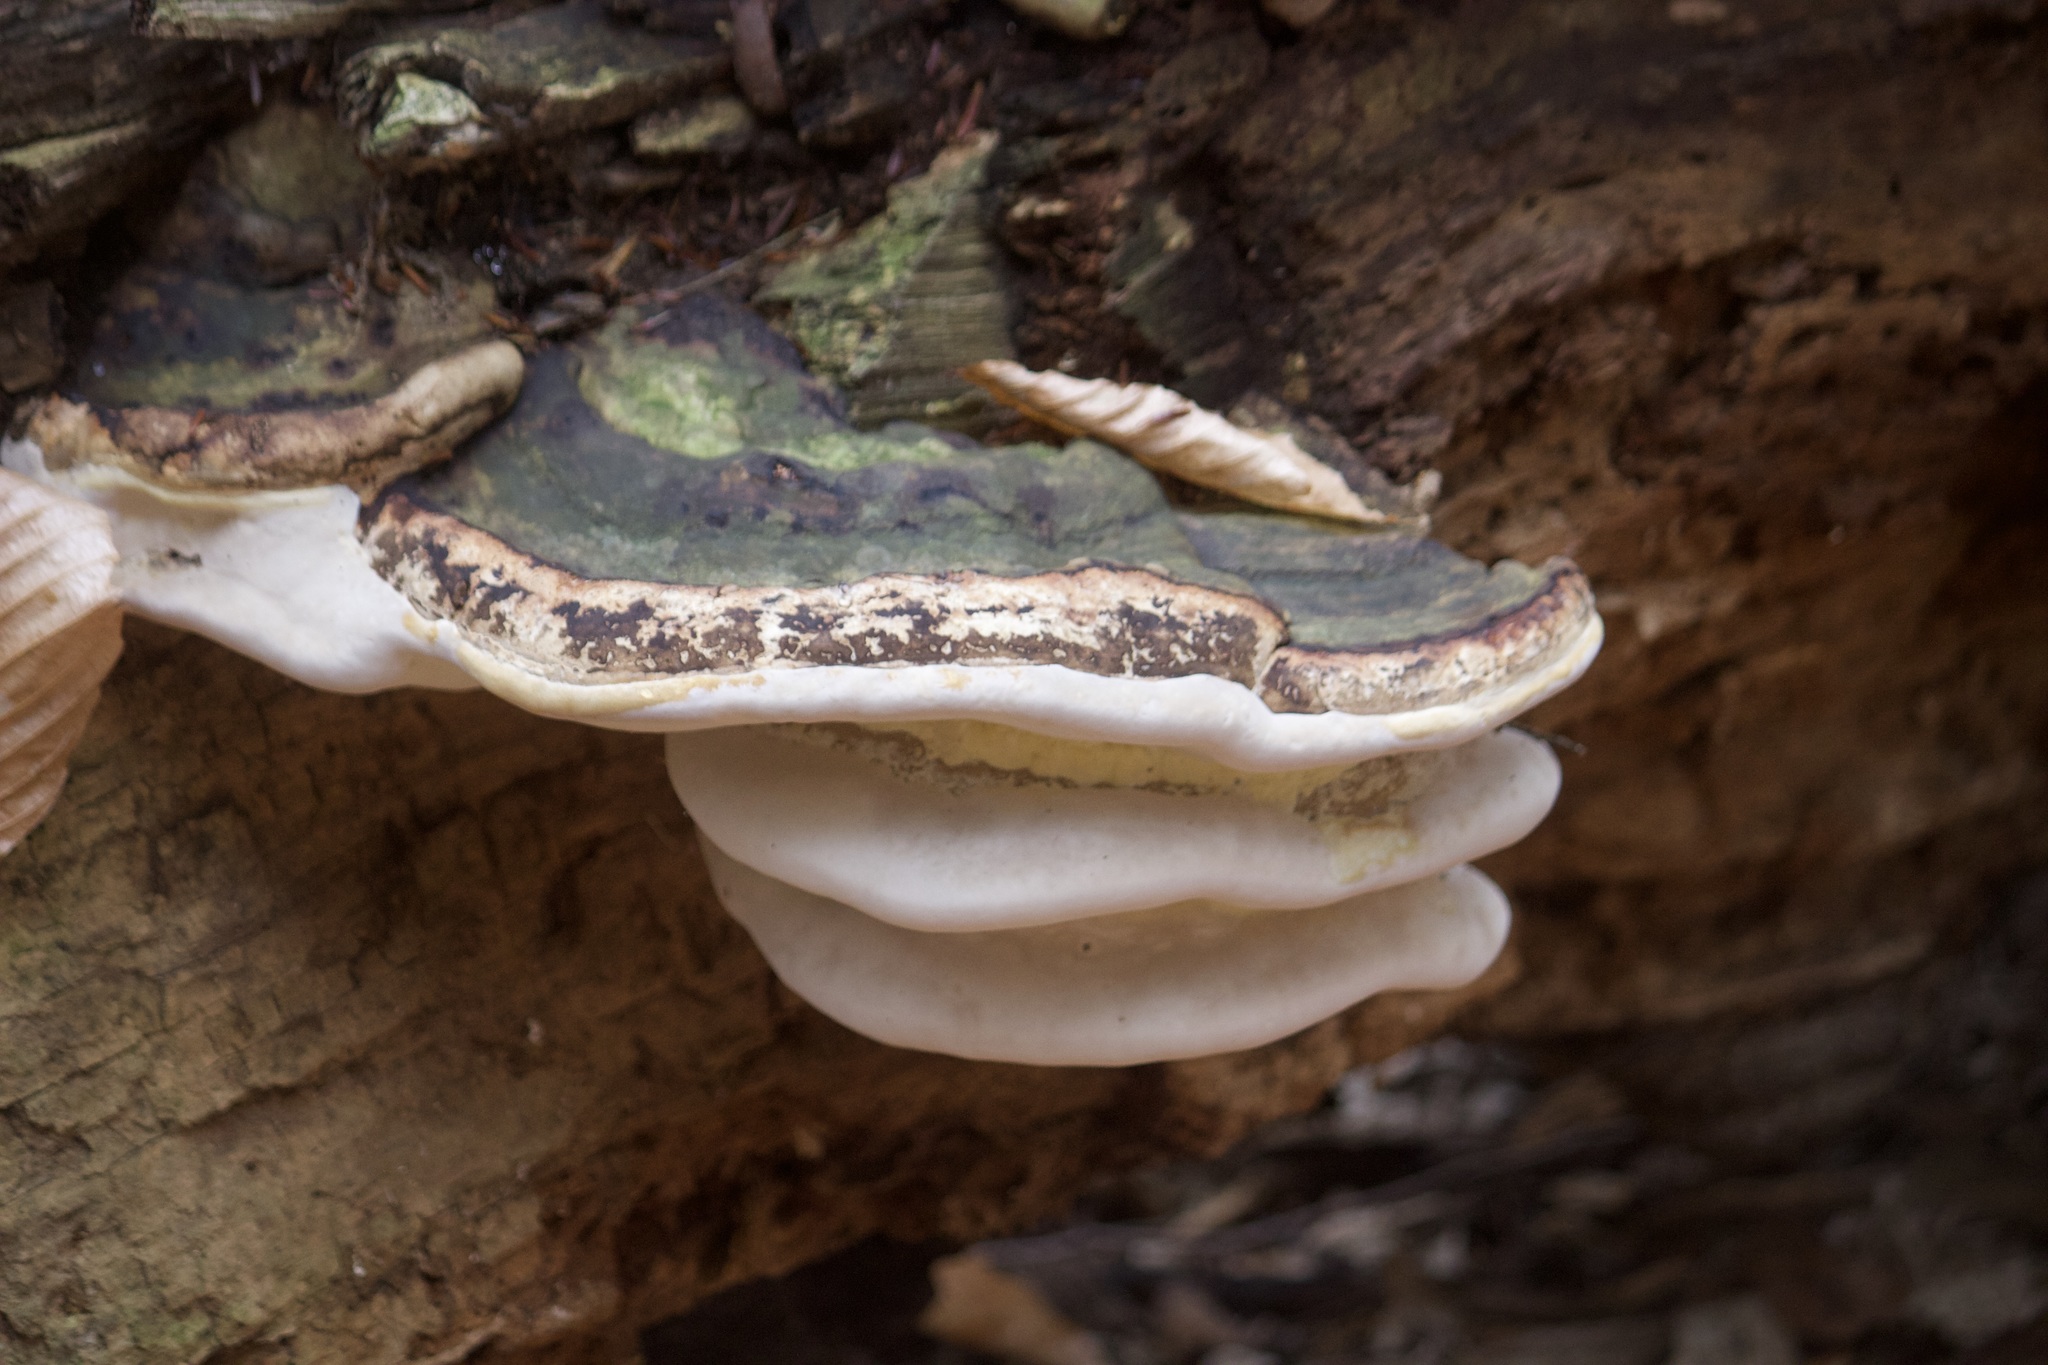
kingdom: Fungi
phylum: Basidiomycota
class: Agaricomycetes
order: Polyporales
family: Fomitopsidaceae
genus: Fomitopsis
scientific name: Fomitopsis ochracea
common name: American brown fomitopsis
